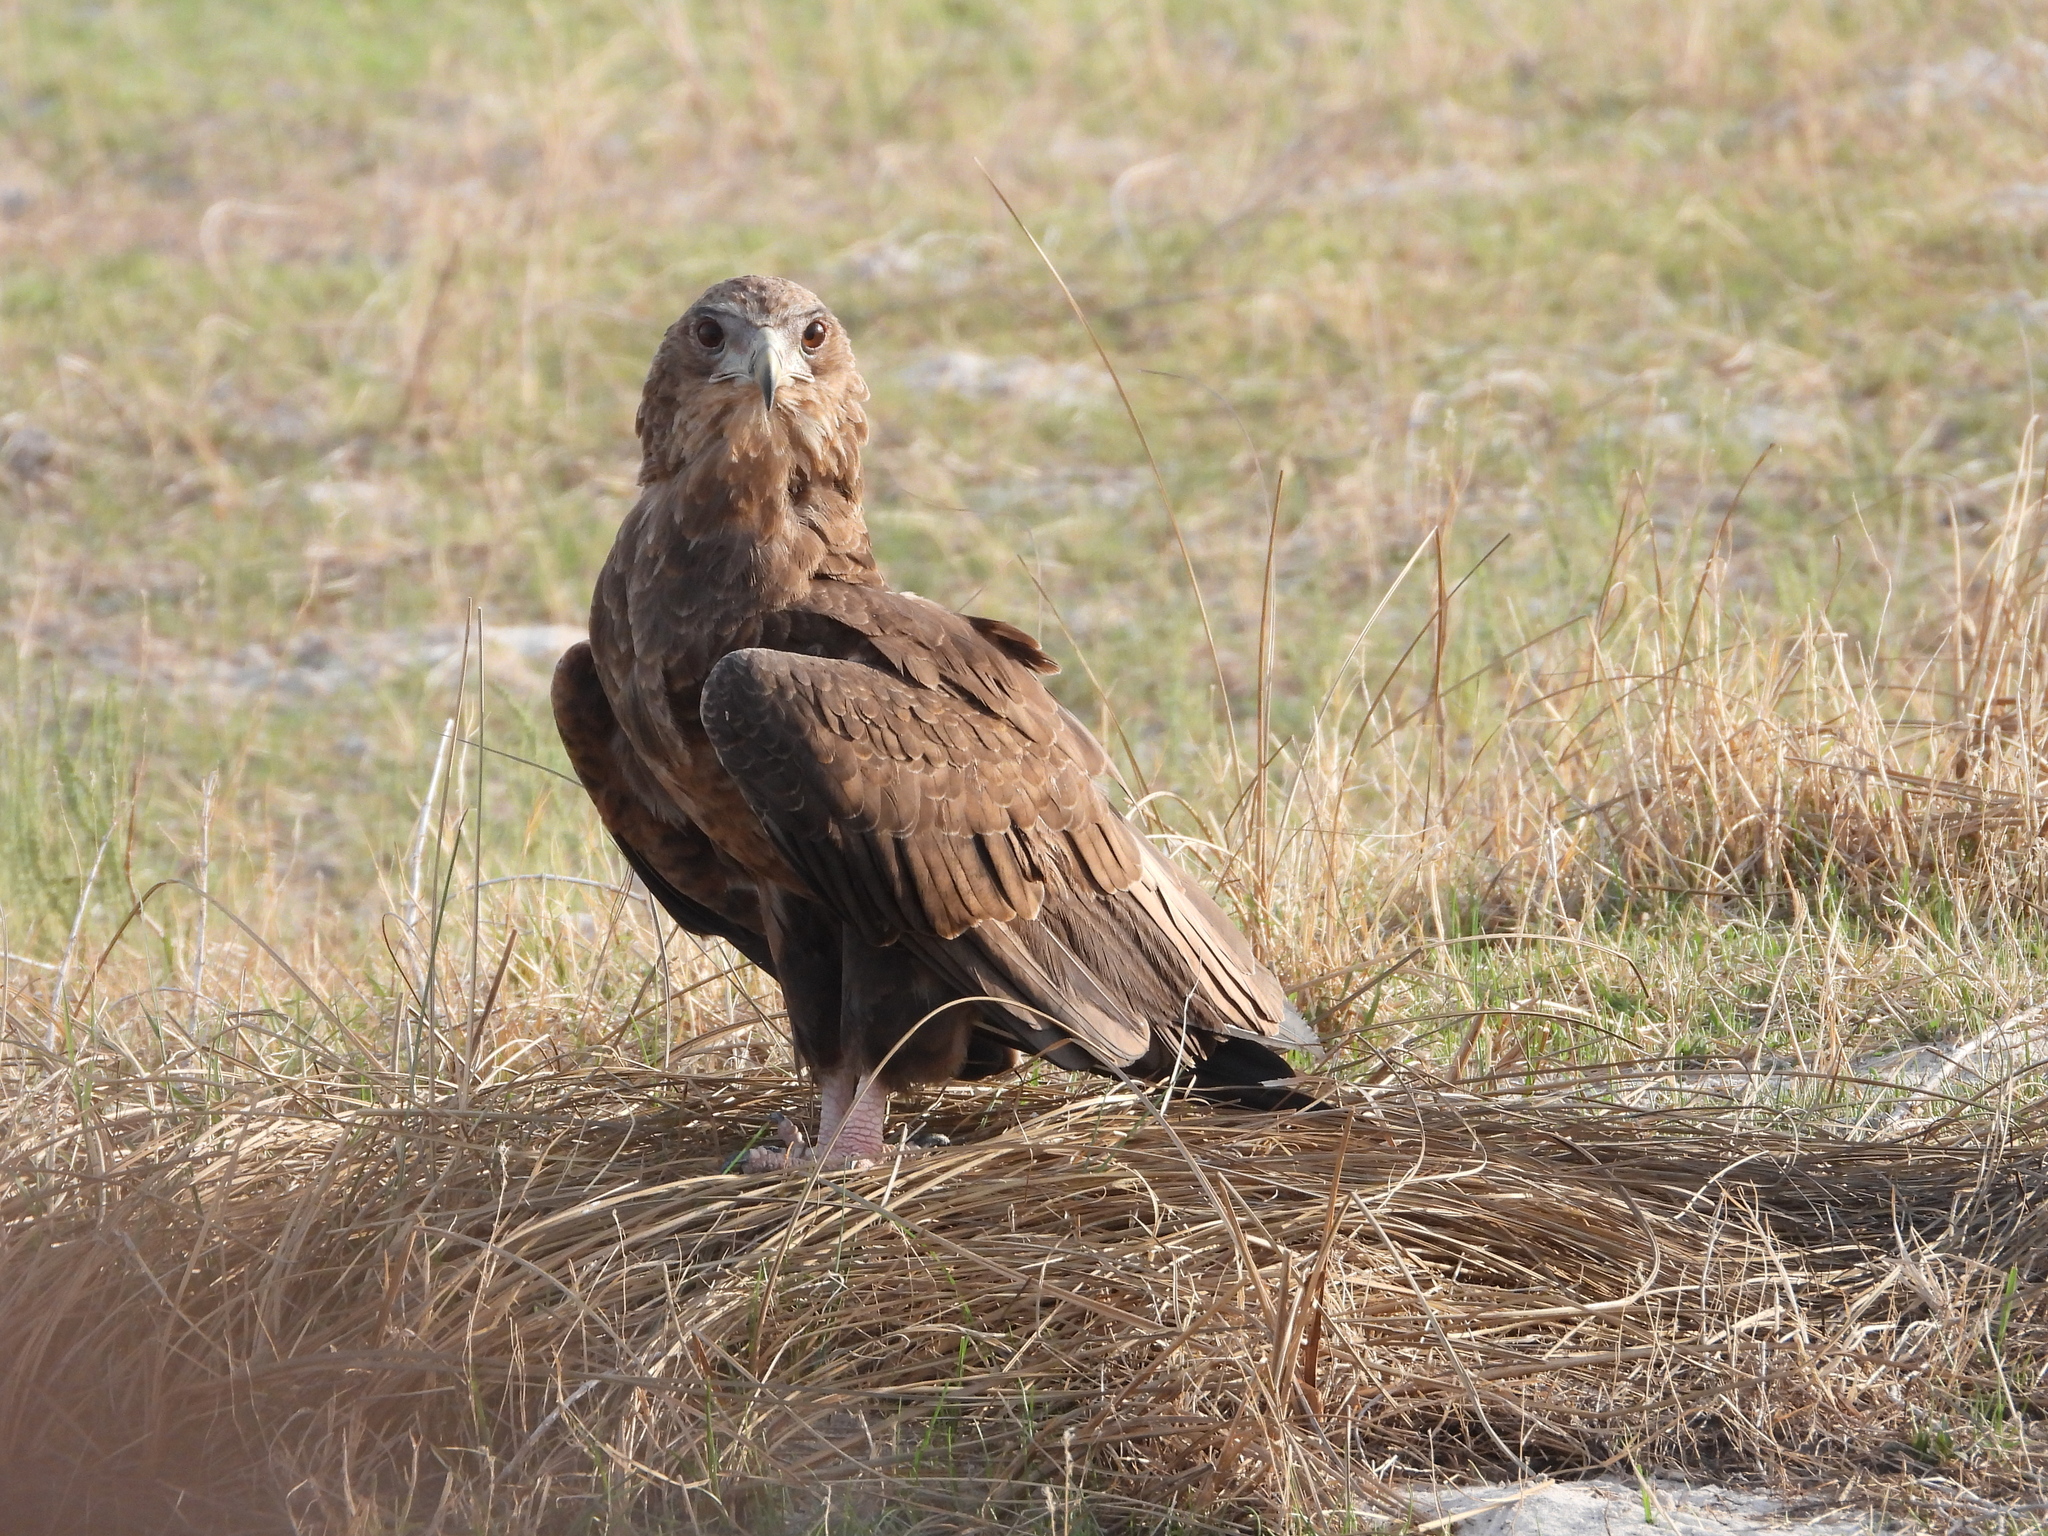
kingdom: Animalia
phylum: Chordata
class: Aves
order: Accipitriformes
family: Accipitridae
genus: Terathopius
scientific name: Terathopius ecaudatus
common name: Bateleur
